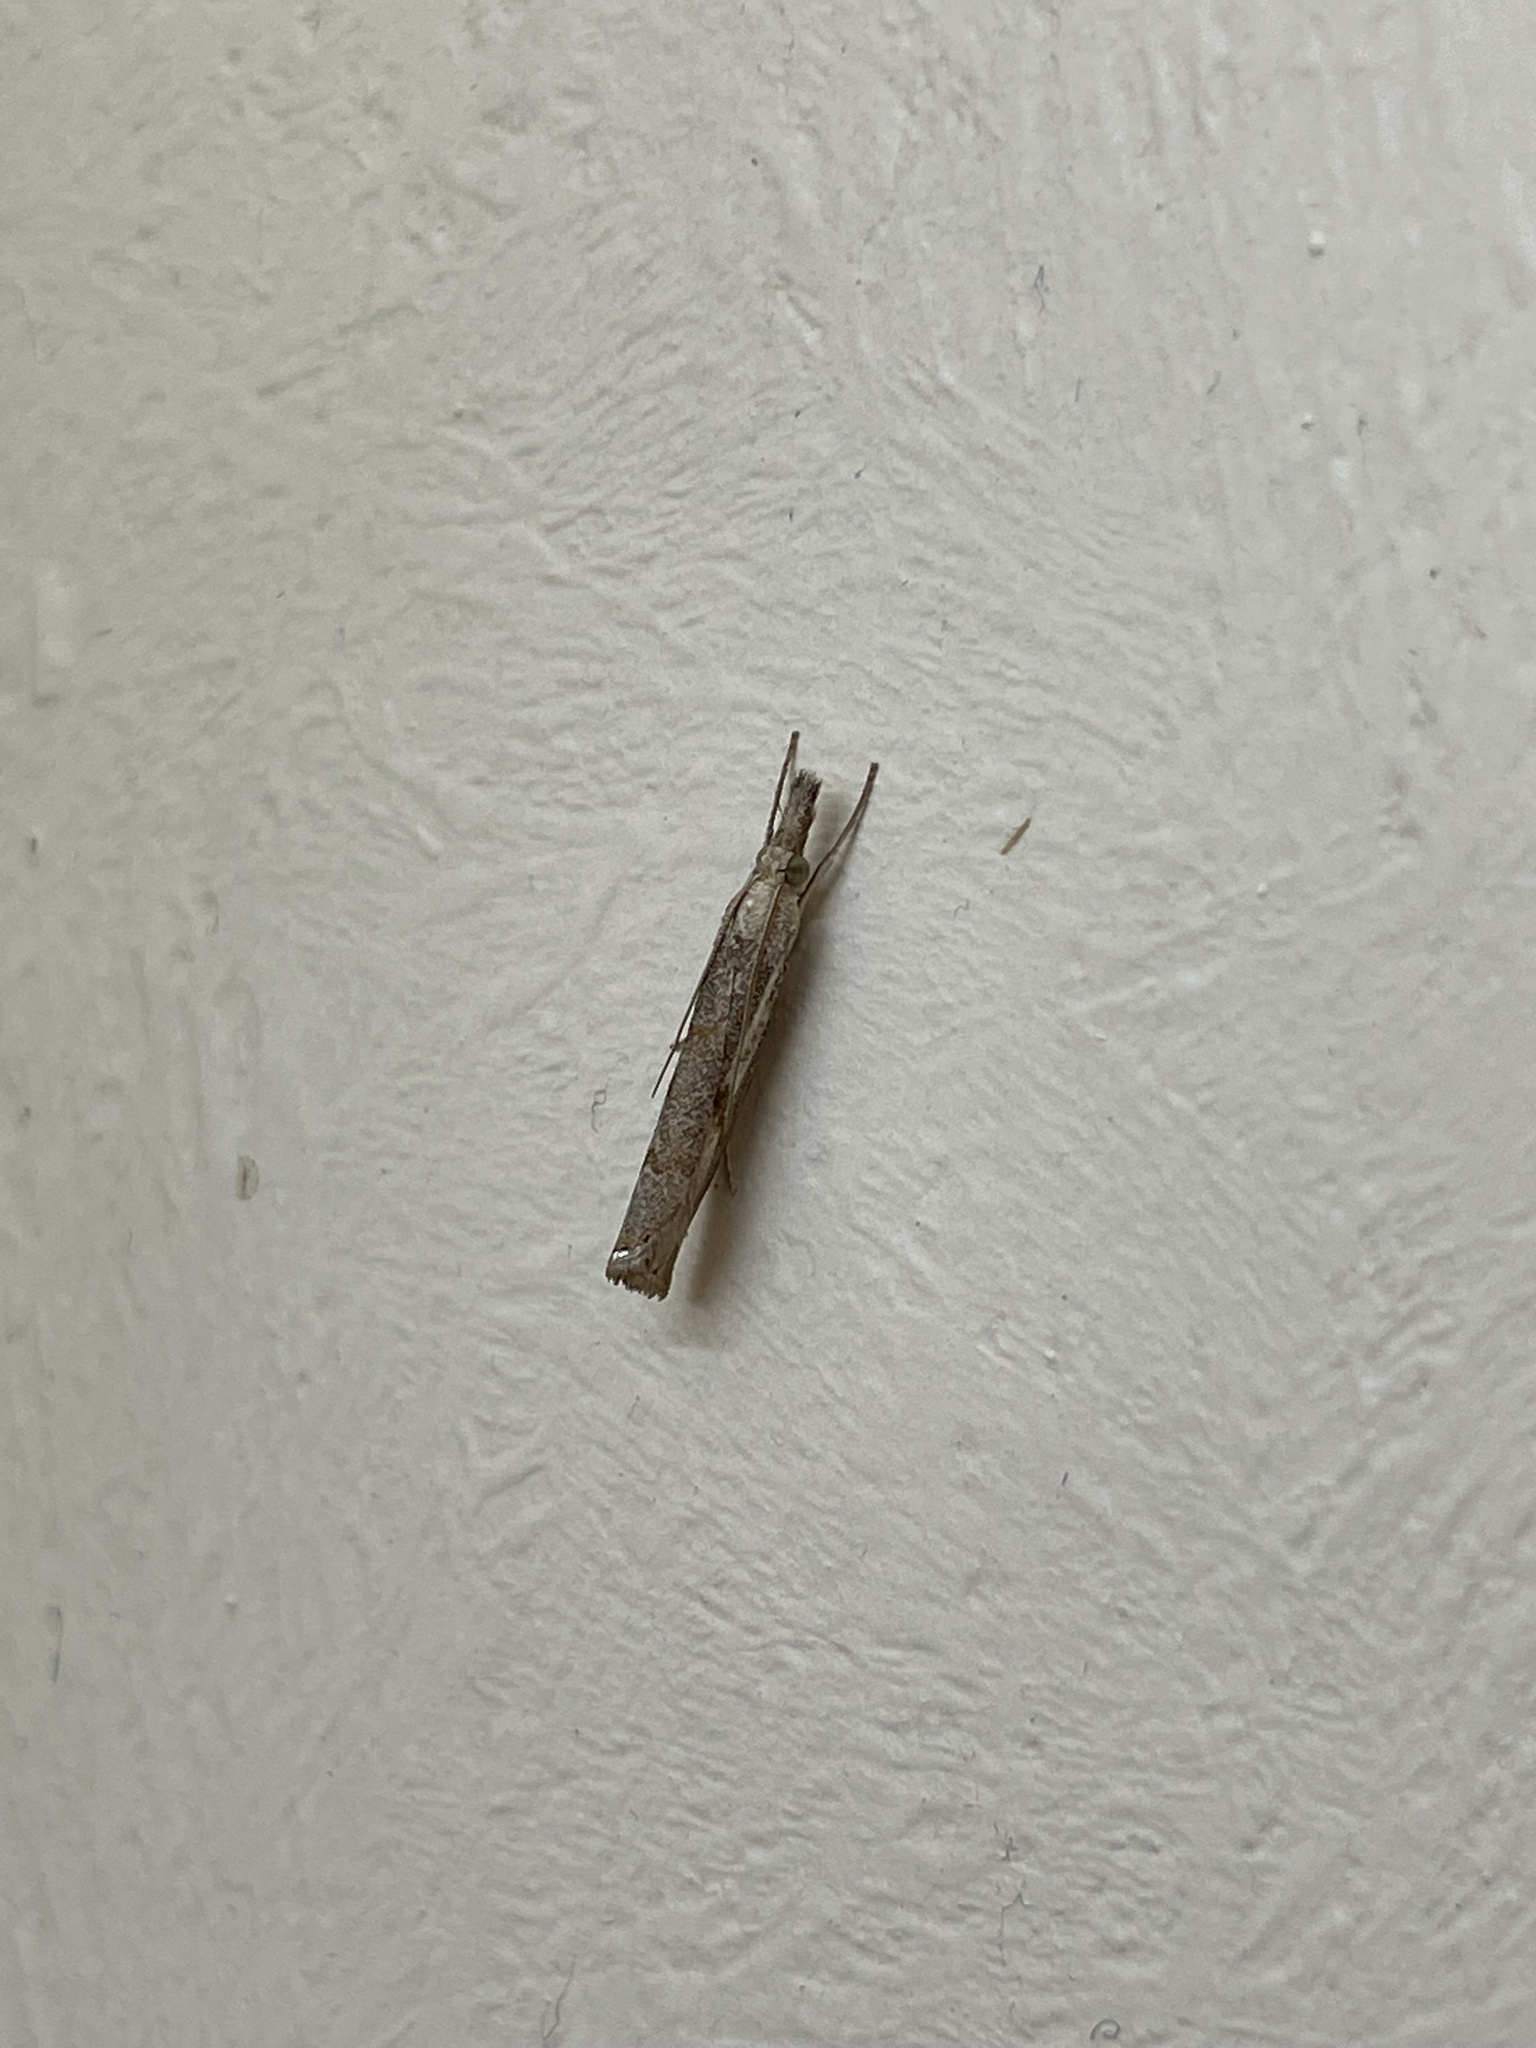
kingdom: Animalia
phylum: Arthropoda
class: Insecta
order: Lepidoptera
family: Crambidae
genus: Agriphila
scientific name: Agriphila geniculea
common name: Elbow-stripe grass-veneer
